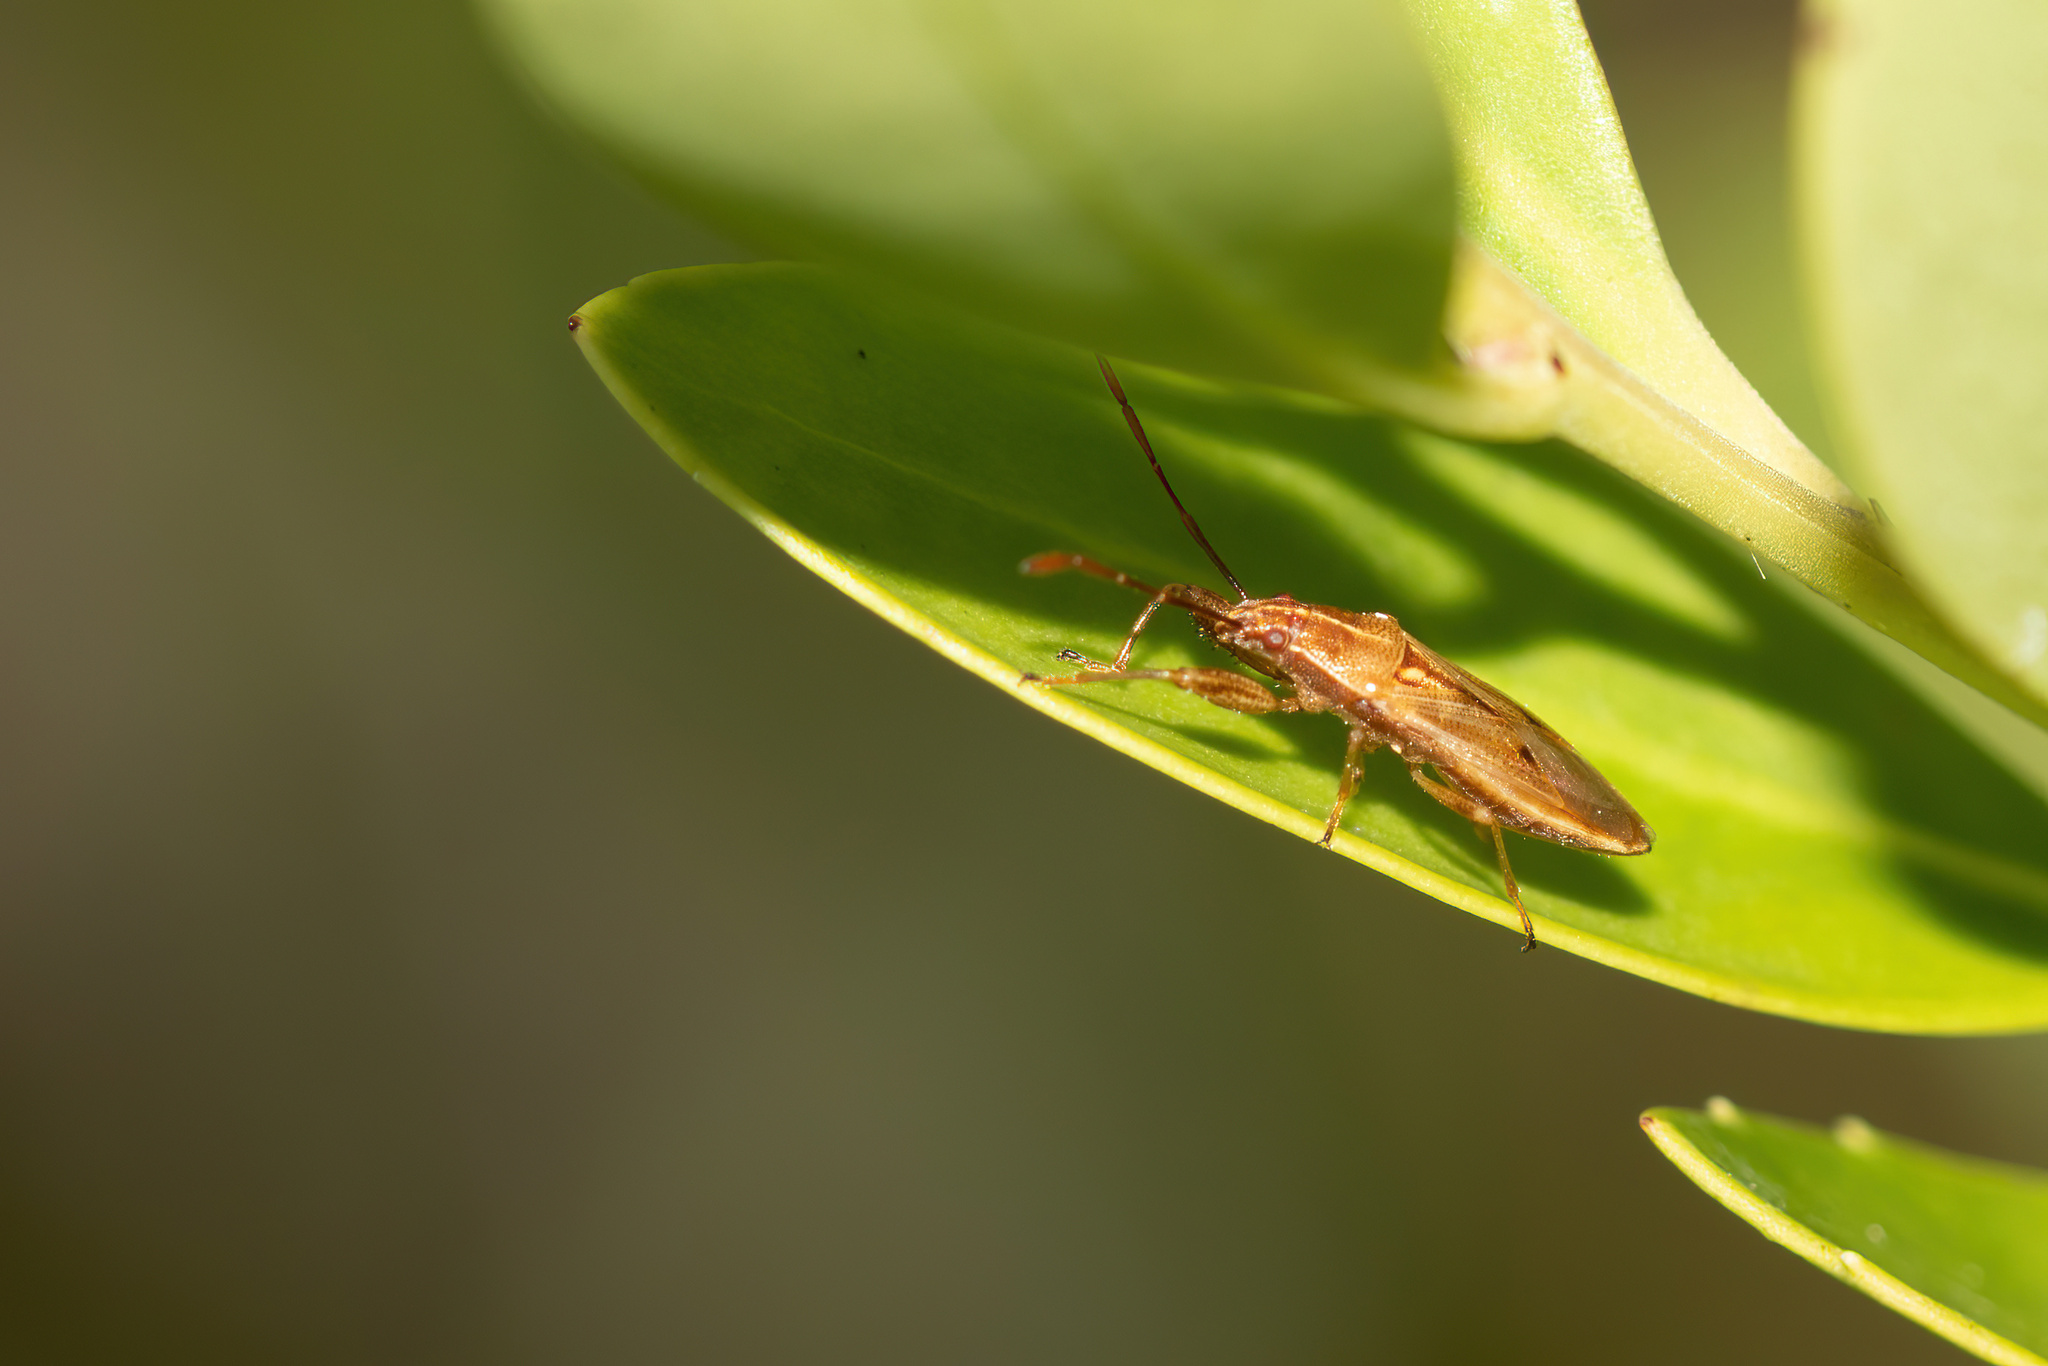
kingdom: Animalia
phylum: Arthropoda
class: Insecta
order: Hemiptera
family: Pachygronthidae
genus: Oedancala
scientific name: Oedancala crassimana
